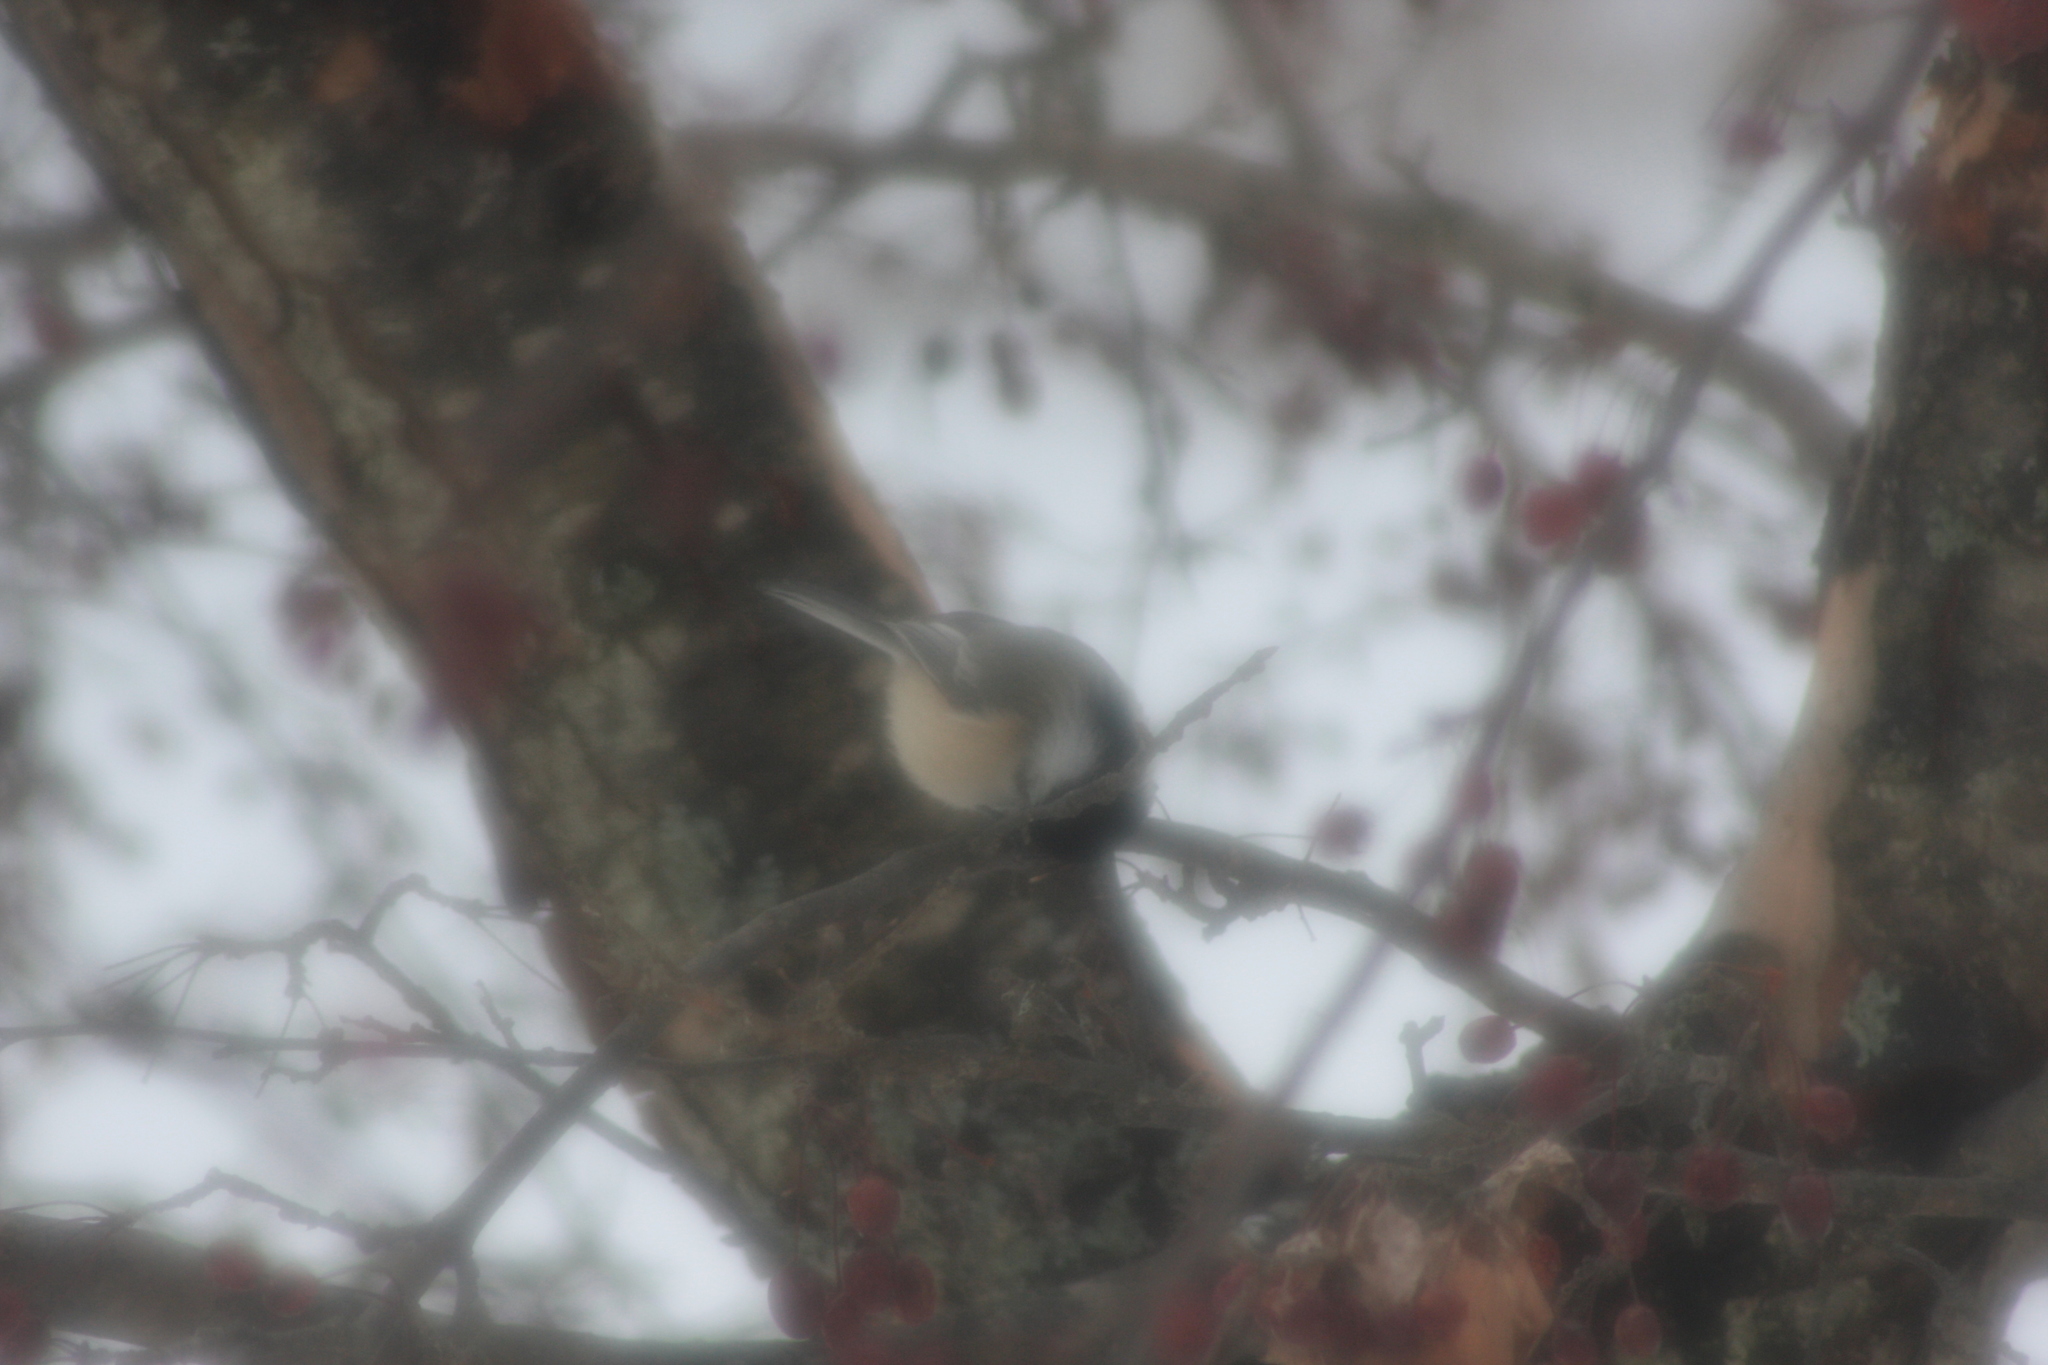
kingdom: Animalia
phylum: Chordata
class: Aves
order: Passeriformes
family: Paridae
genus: Poecile
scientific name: Poecile atricapillus
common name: Black-capped chickadee
